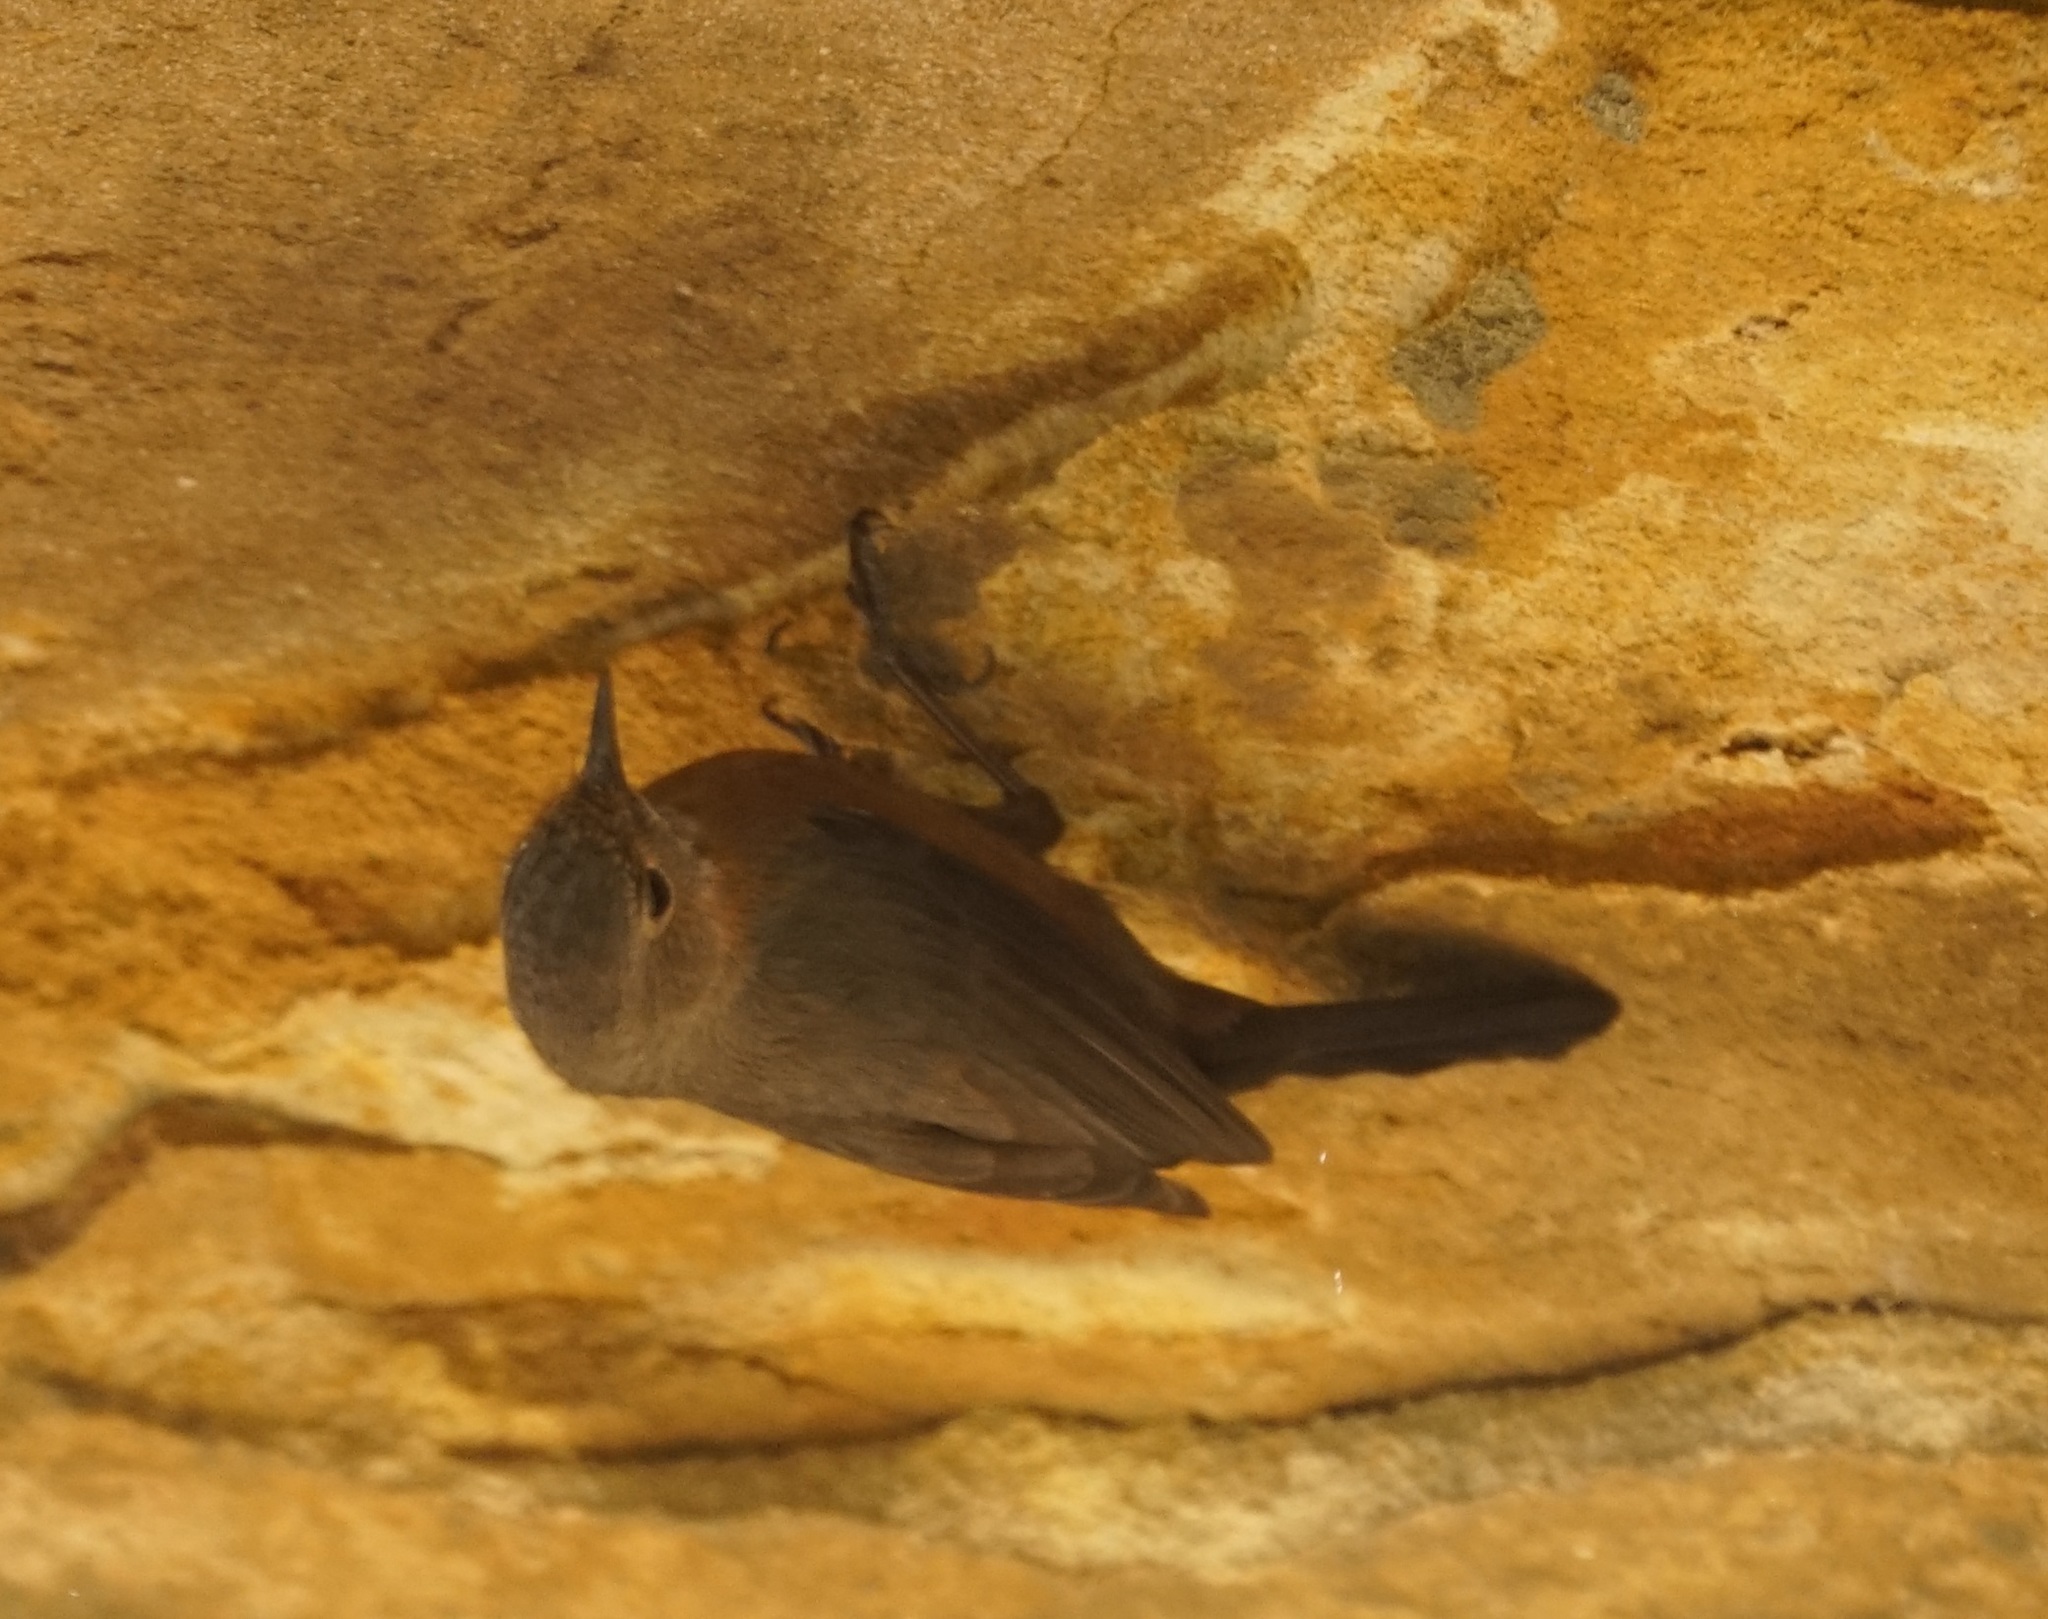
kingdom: Animalia
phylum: Chordata
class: Aves
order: Passeriformes
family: Acanthizidae
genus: Origma
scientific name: Origma solitaria
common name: Rockwarbler
